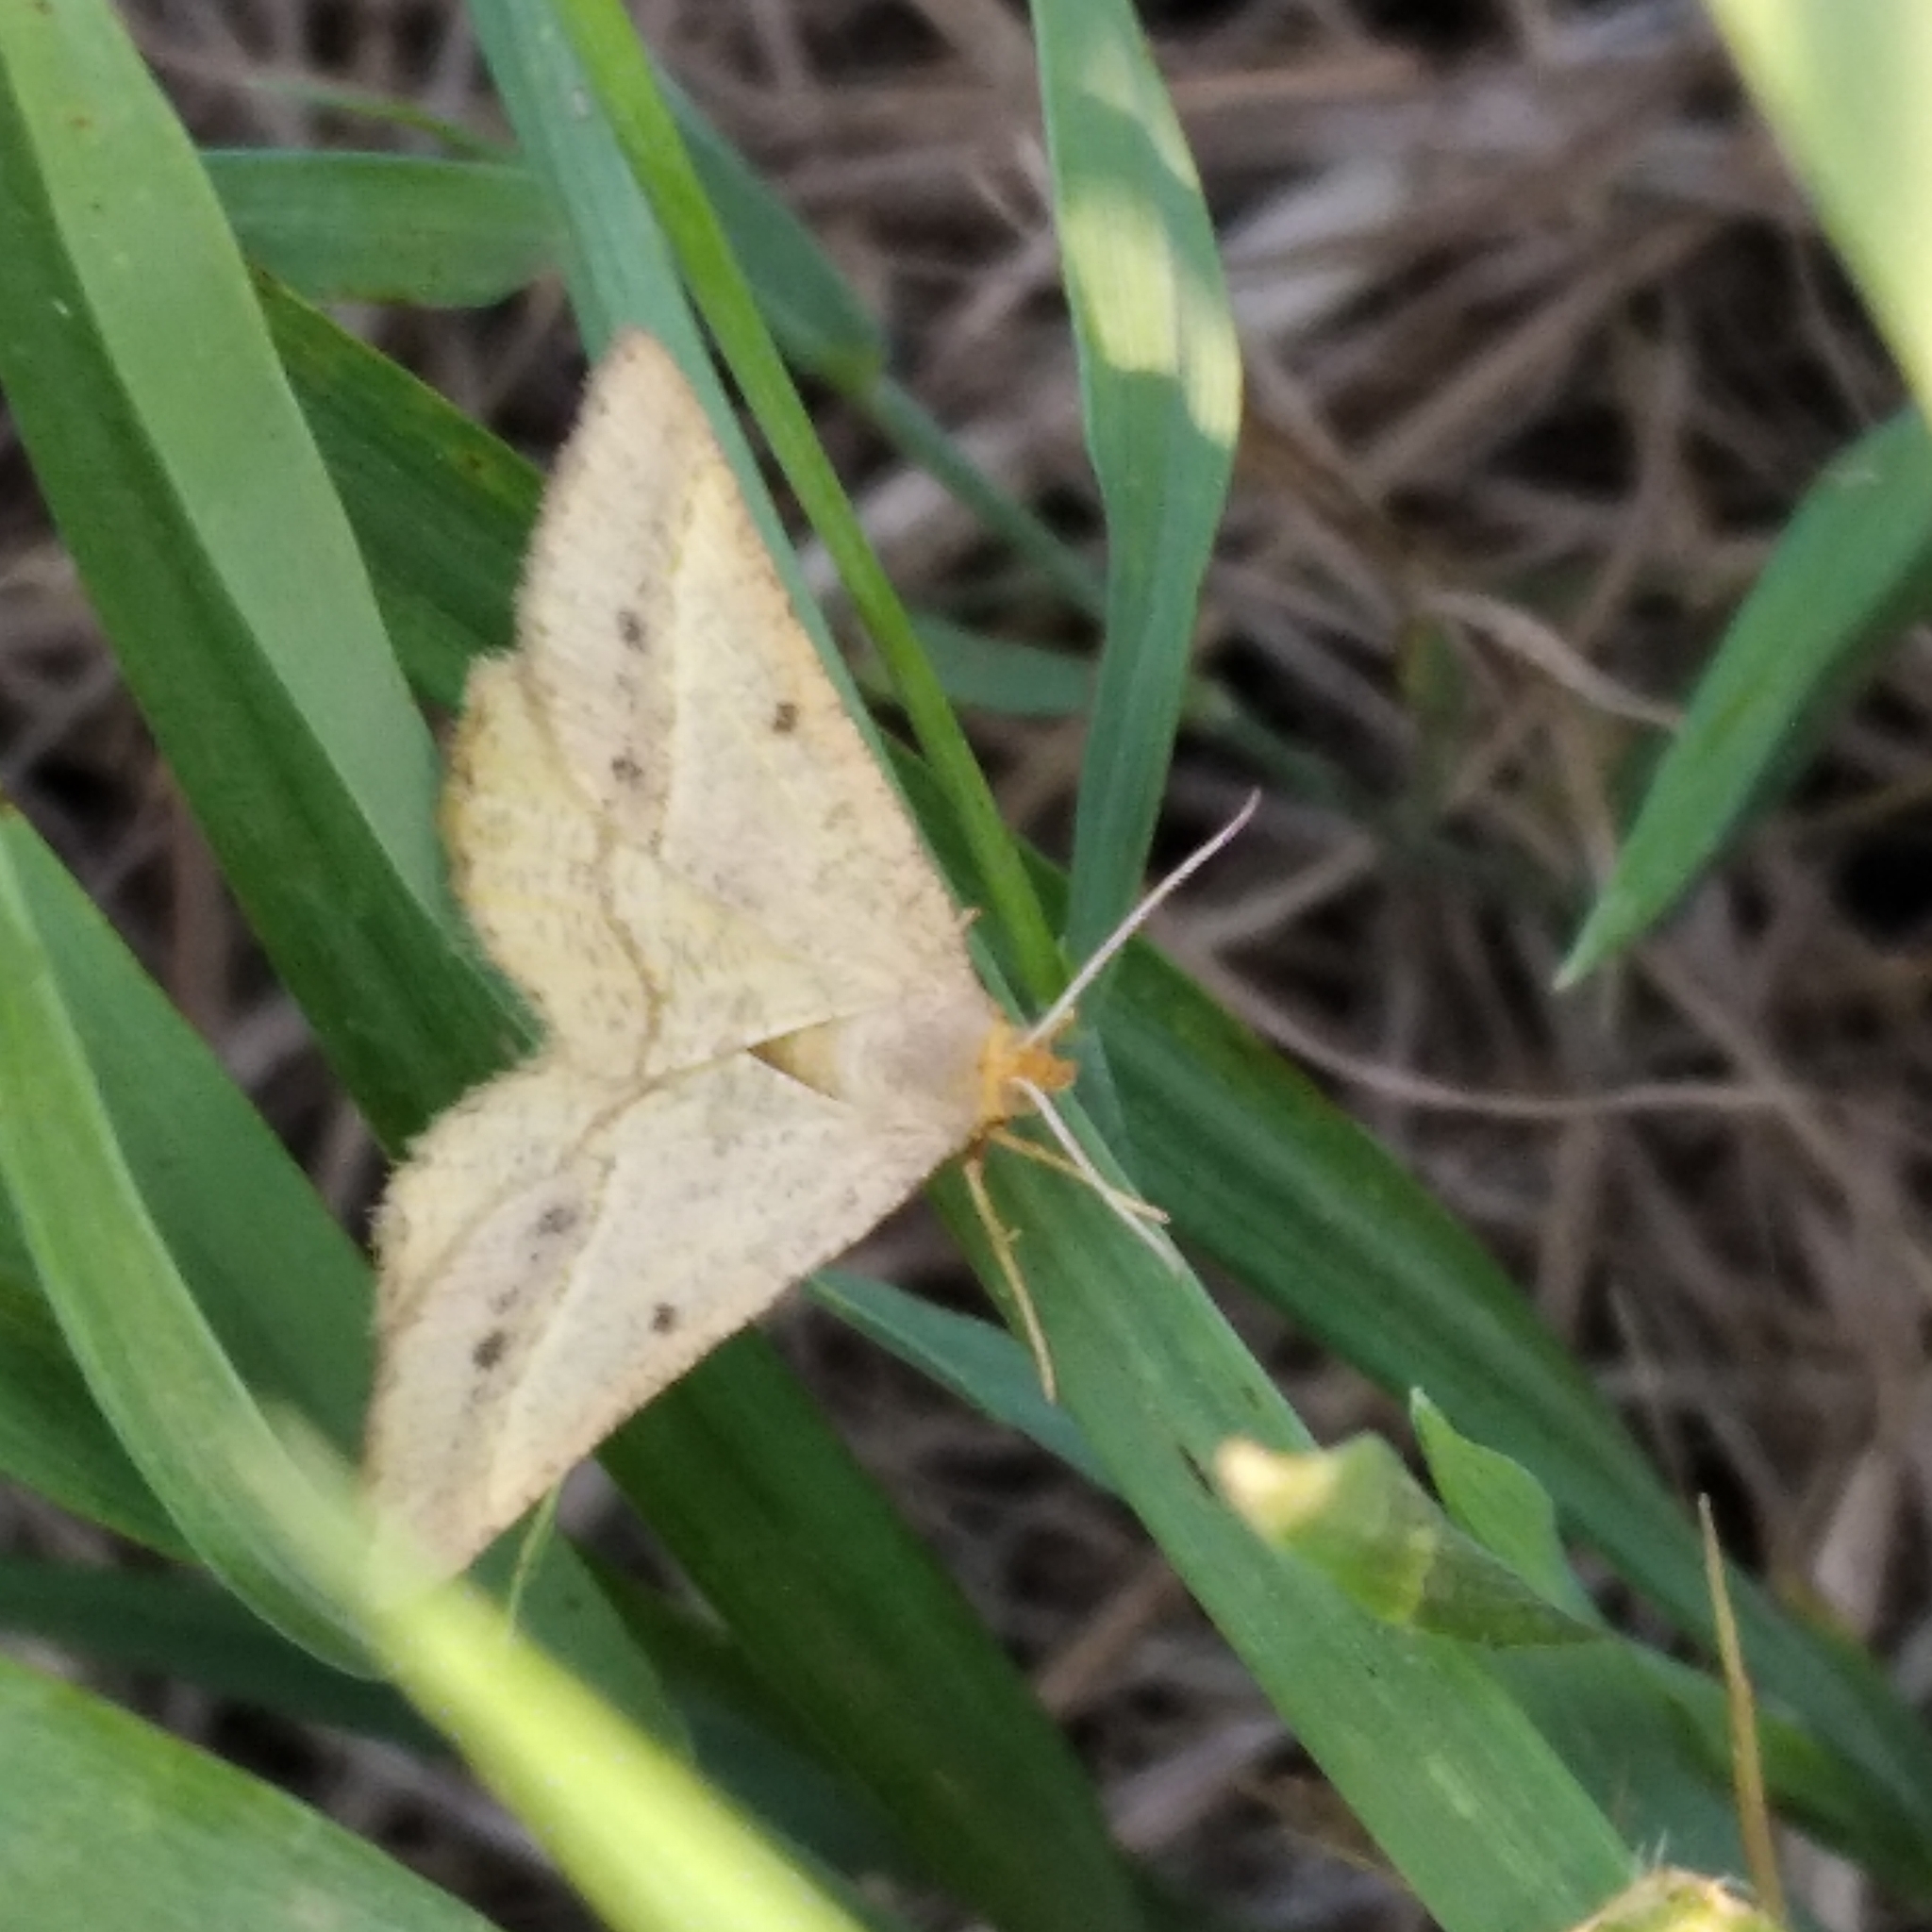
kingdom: Animalia
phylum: Arthropoda
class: Insecta
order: Lepidoptera
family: Geometridae
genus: Tephrina
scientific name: Tephrina arenacearia
